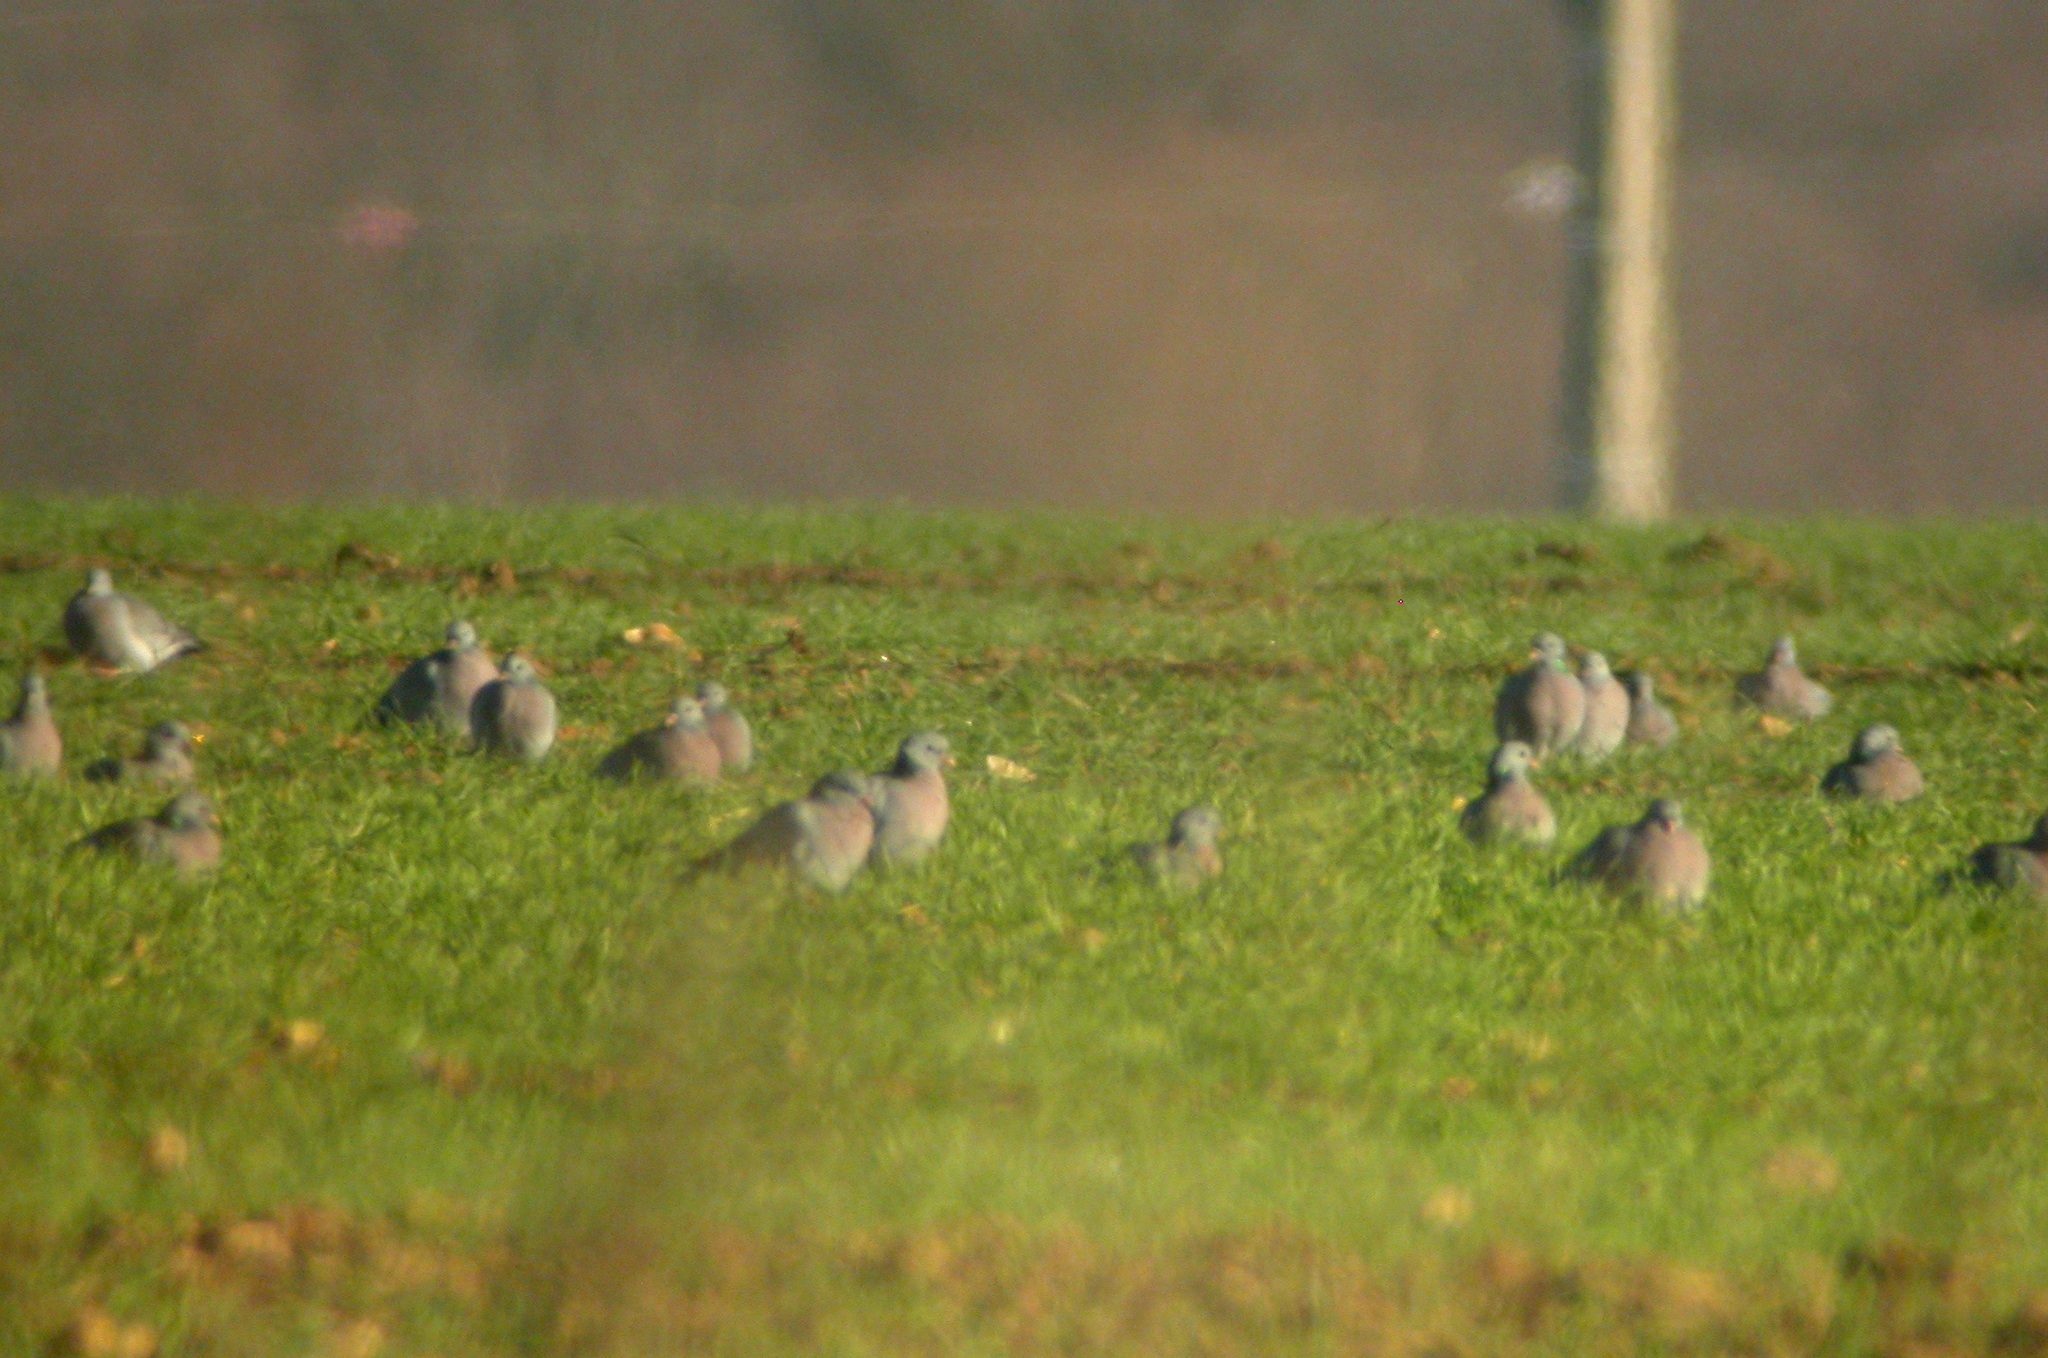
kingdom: Animalia
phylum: Chordata
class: Aves
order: Columbiformes
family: Columbidae
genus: Columba
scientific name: Columba oenas
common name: Stock dove
